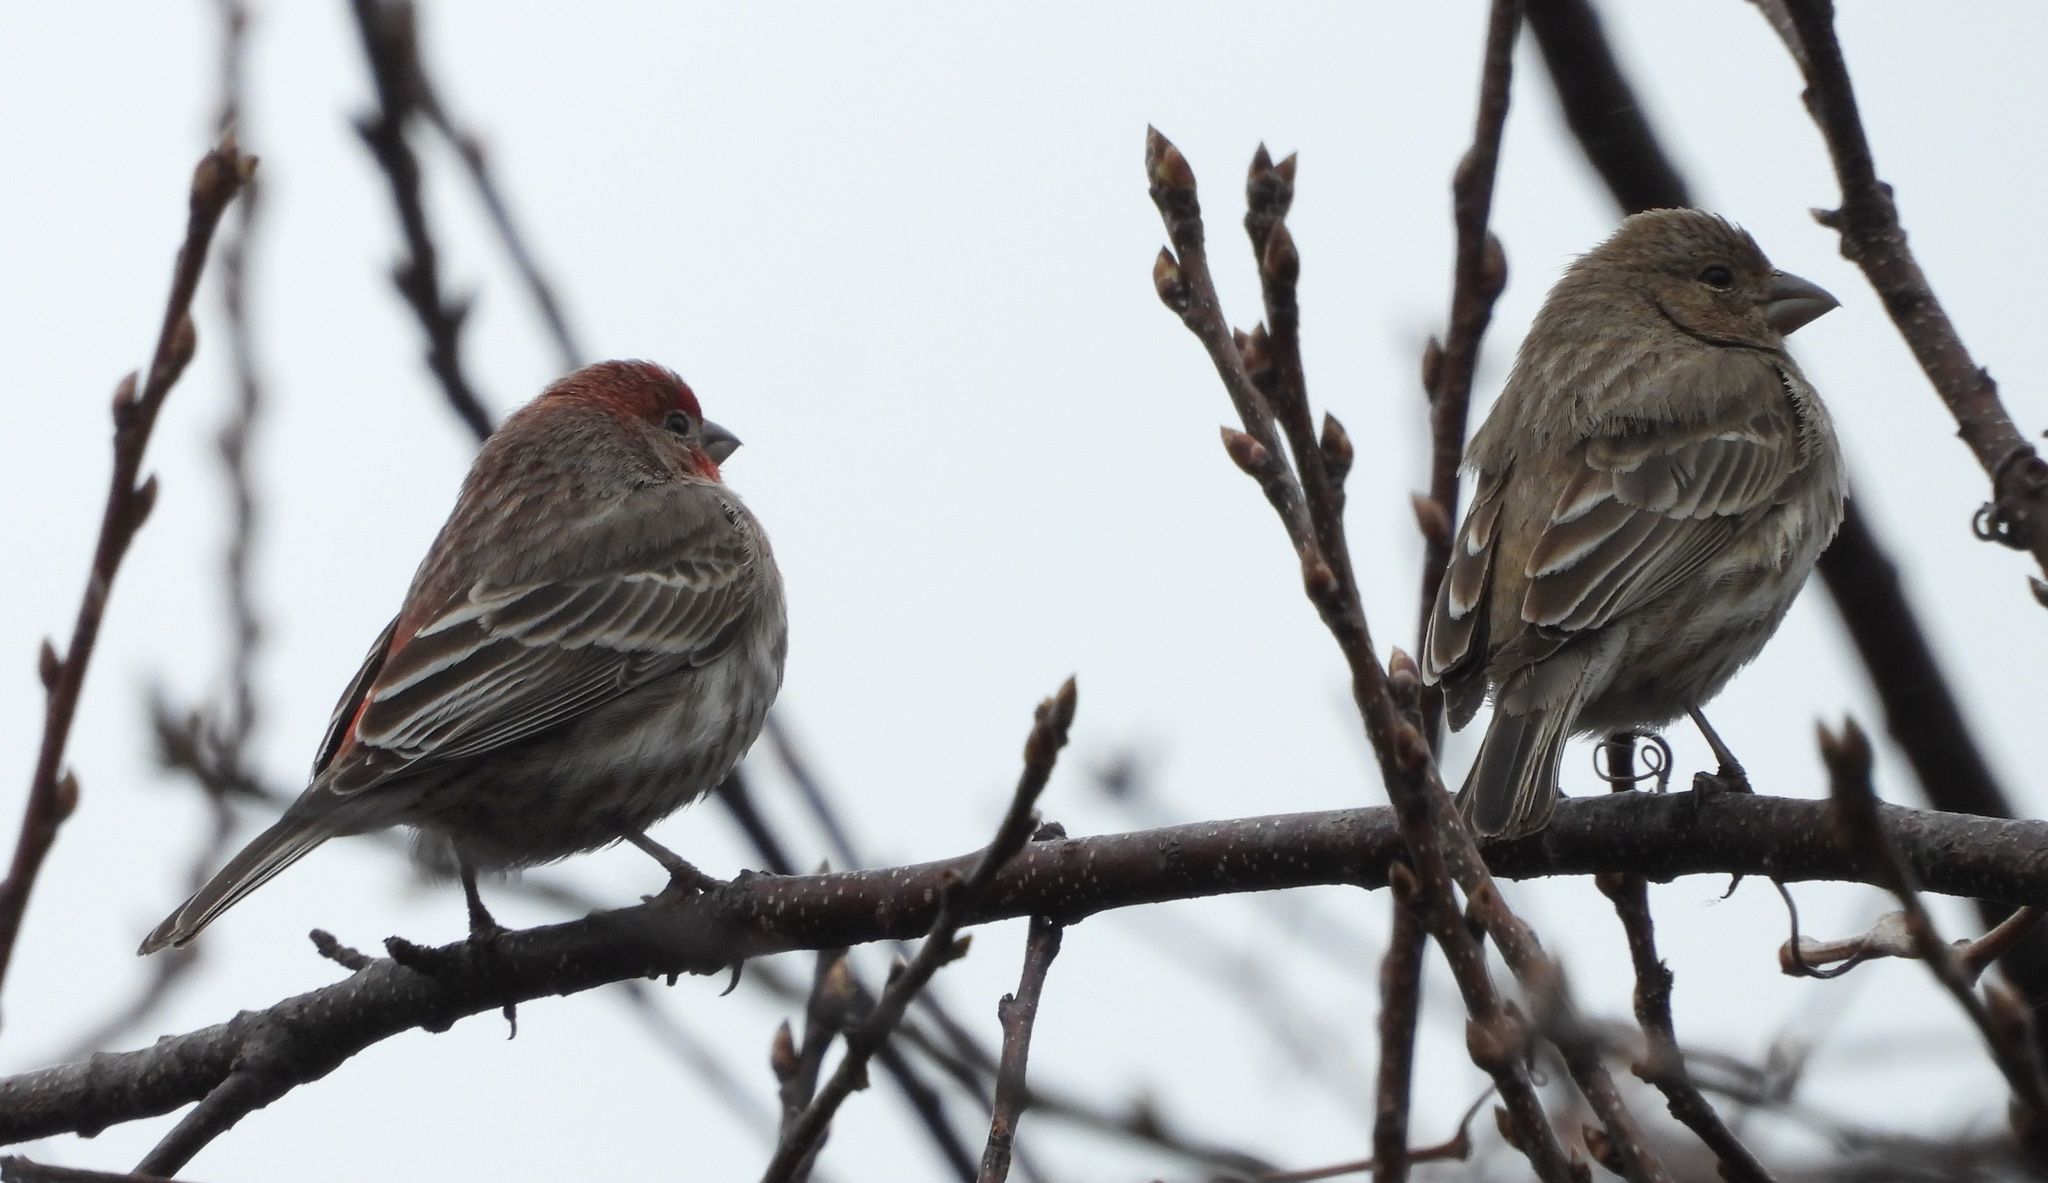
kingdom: Animalia
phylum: Chordata
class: Aves
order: Passeriformes
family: Fringillidae
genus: Haemorhous
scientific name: Haemorhous mexicanus
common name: House finch
